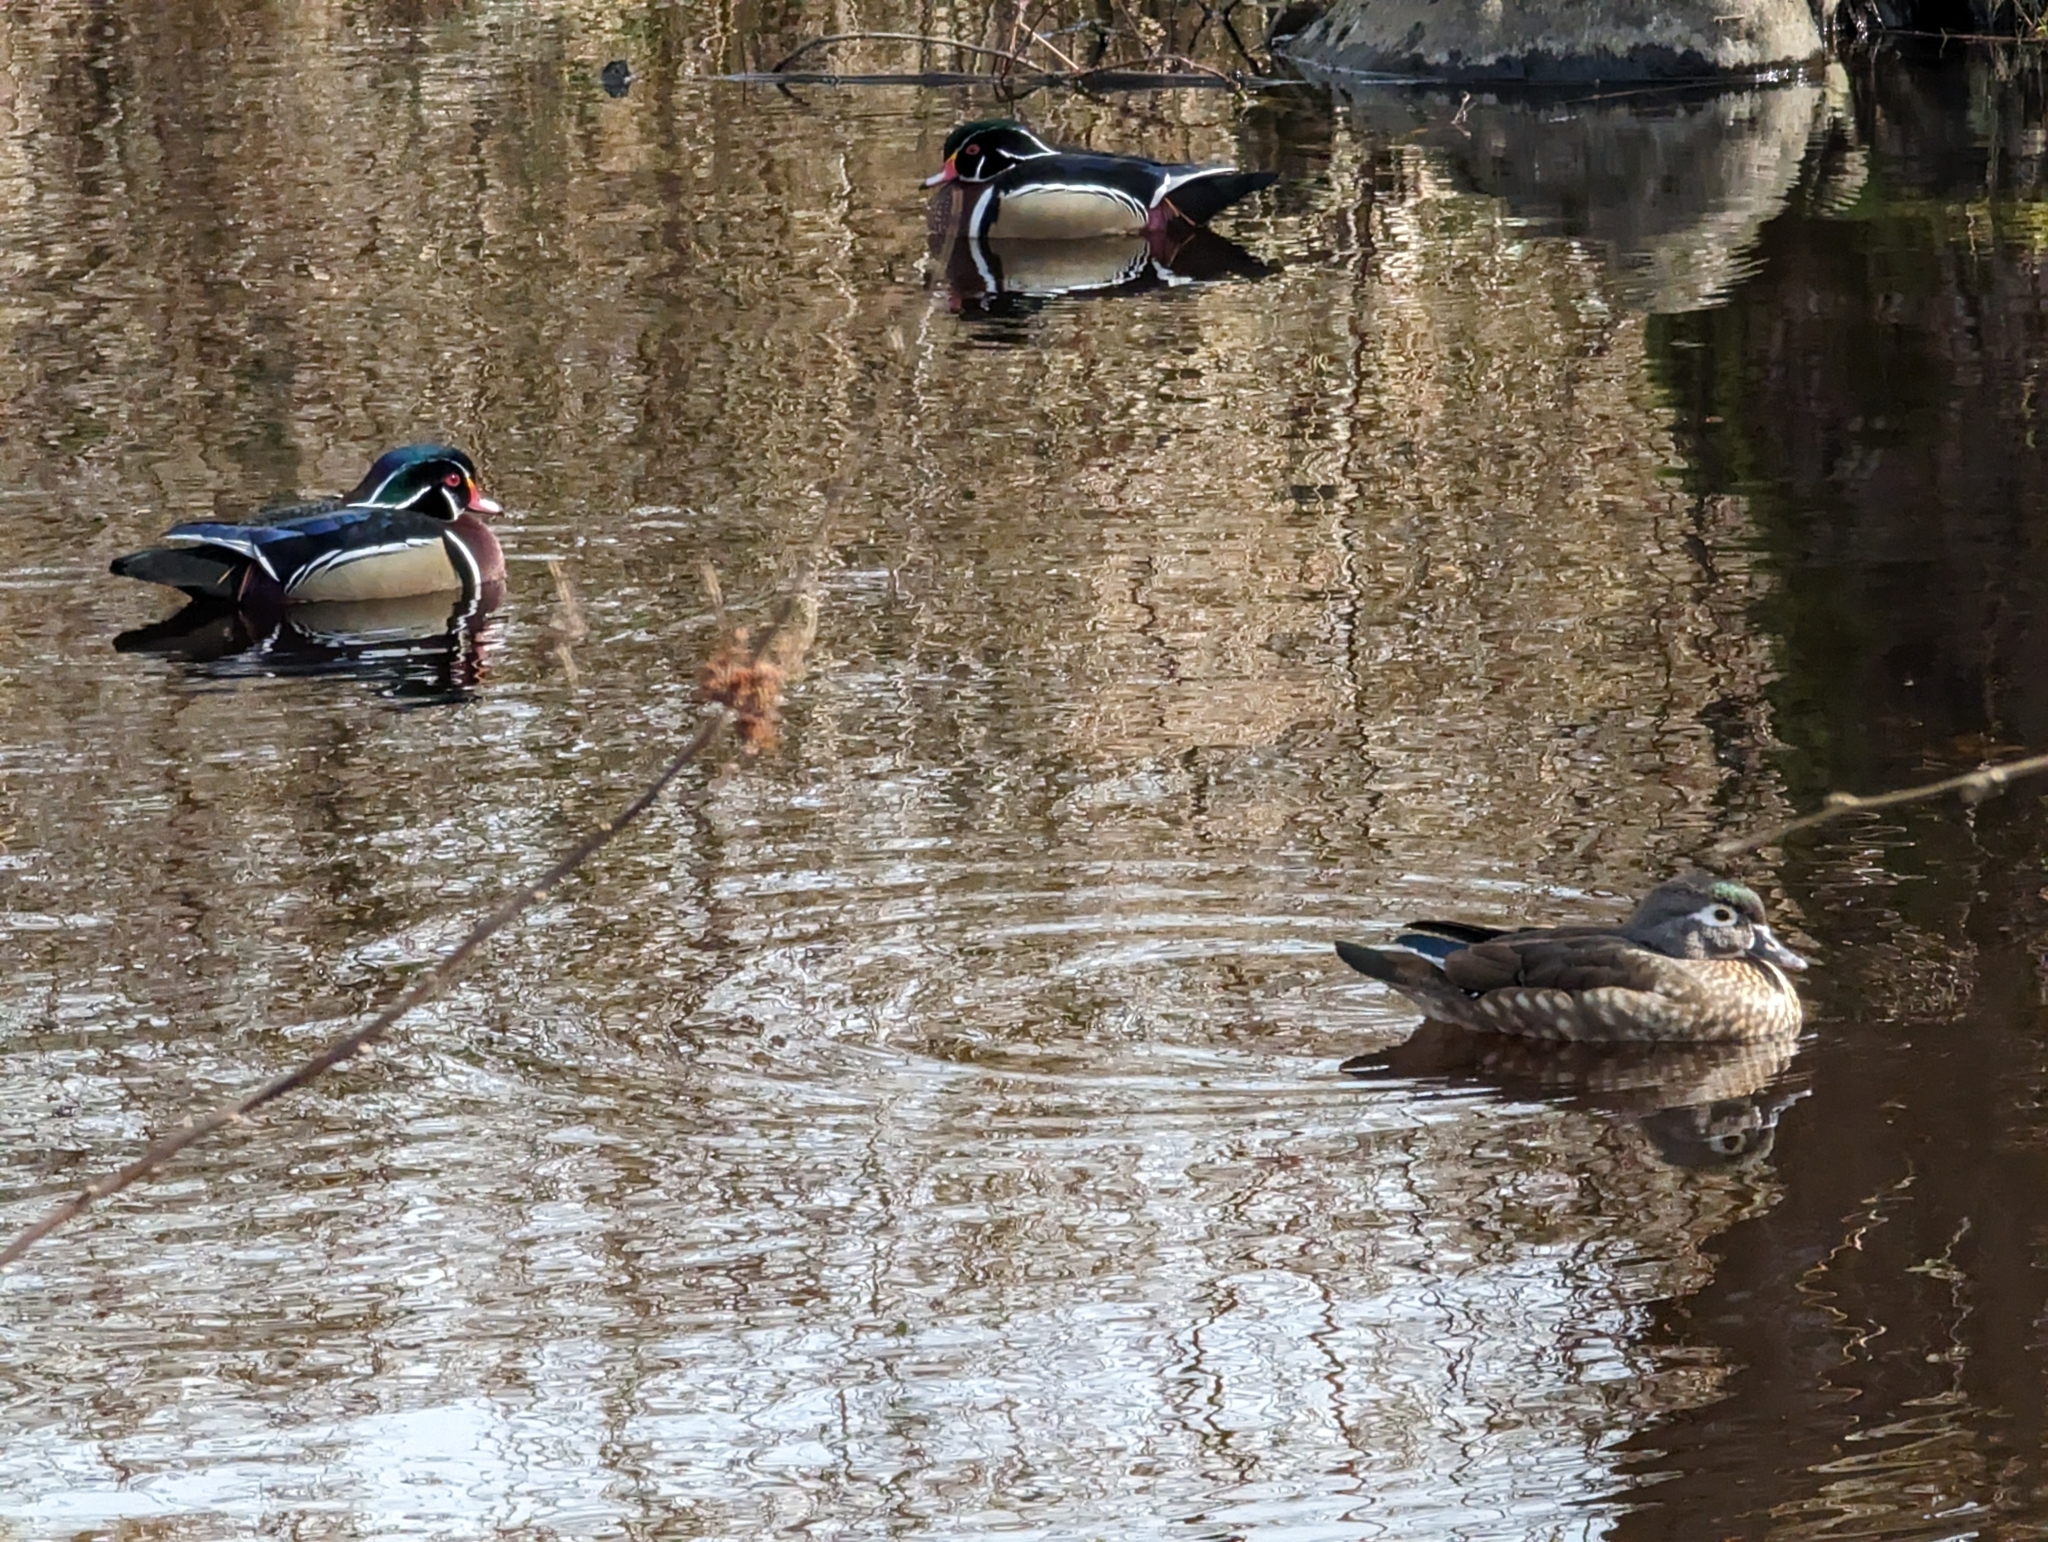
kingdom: Animalia
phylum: Chordata
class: Aves
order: Anseriformes
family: Anatidae
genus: Aix
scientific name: Aix sponsa
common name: Wood duck
